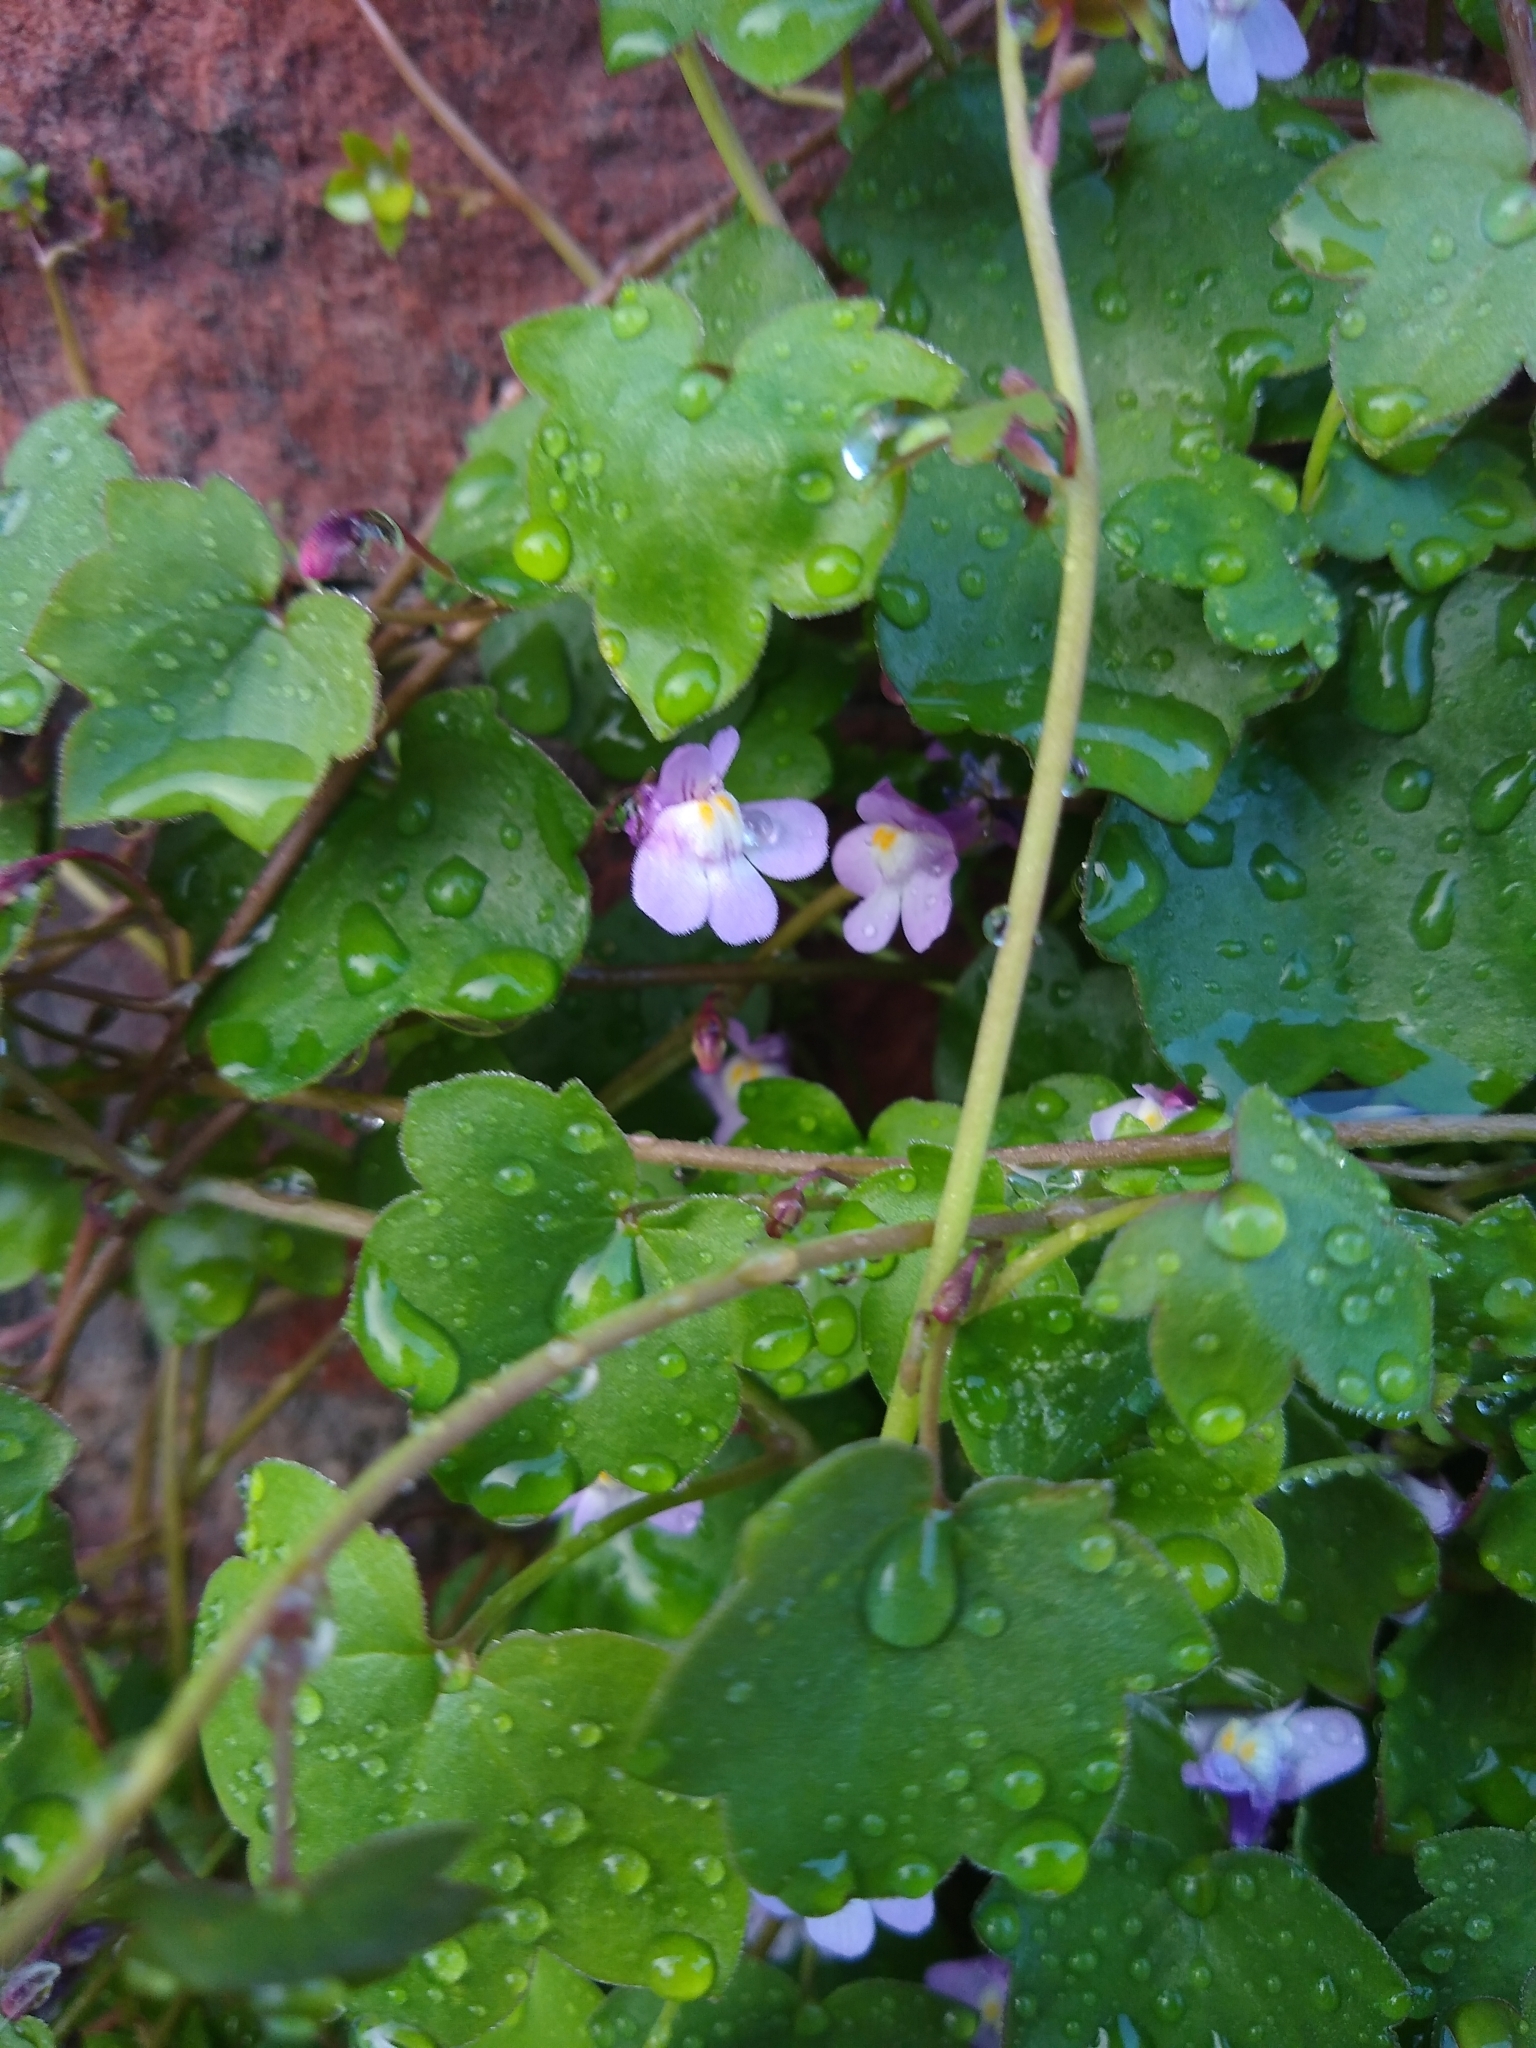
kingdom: Plantae
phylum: Tracheophyta
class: Magnoliopsida
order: Lamiales
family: Plantaginaceae
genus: Cymbalaria
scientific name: Cymbalaria muralis
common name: Ivy-leaved toadflax
